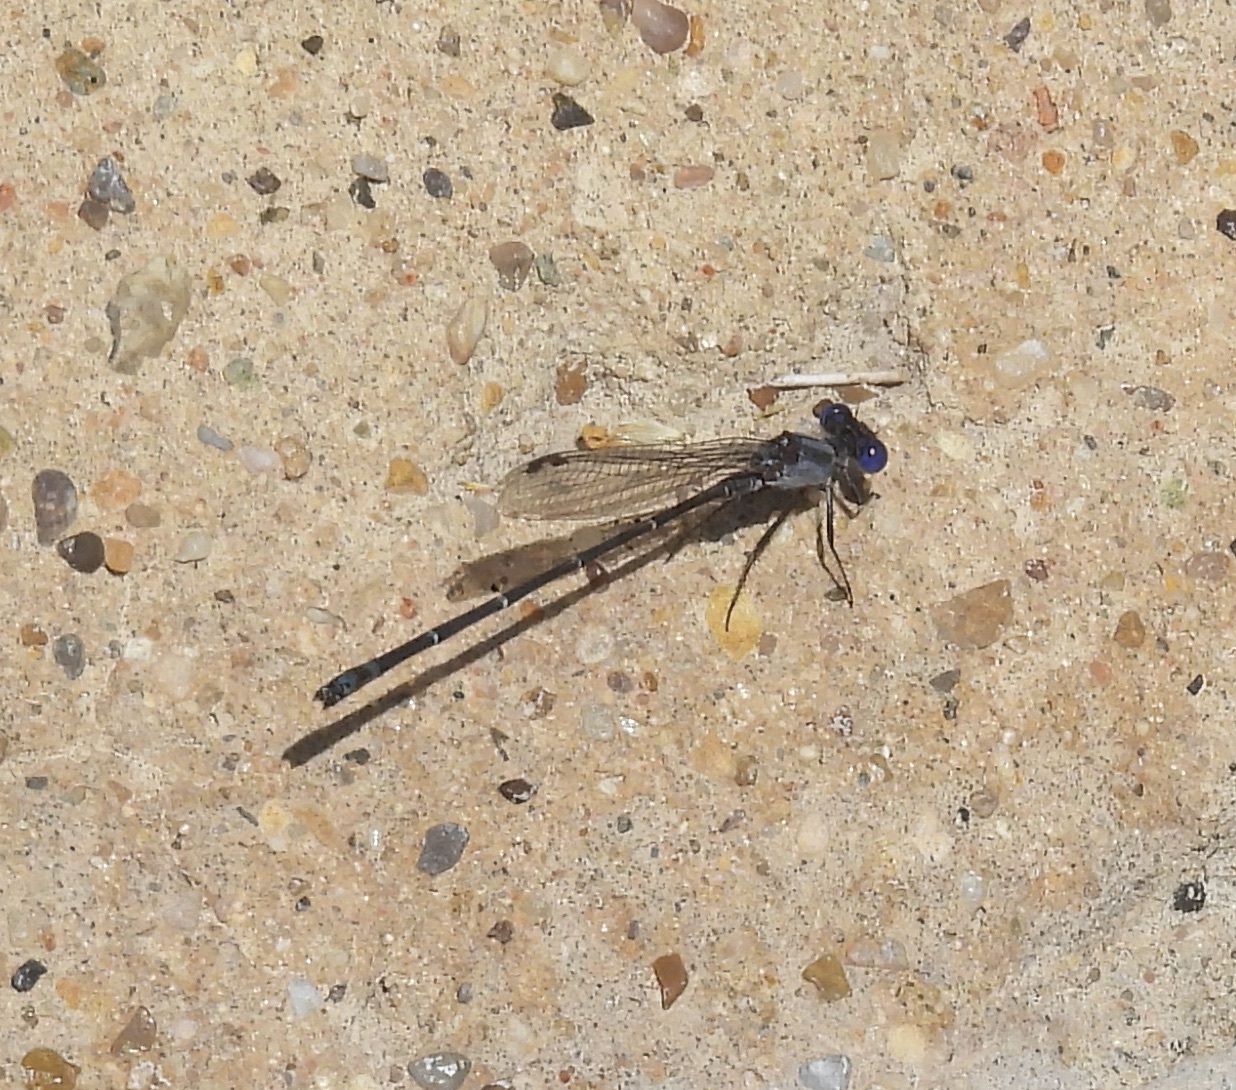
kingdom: Animalia
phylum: Arthropoda
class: Insecta
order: Odonata
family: Coenagrionidae
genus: Argia
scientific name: Argia translata
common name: Dusky dancer
